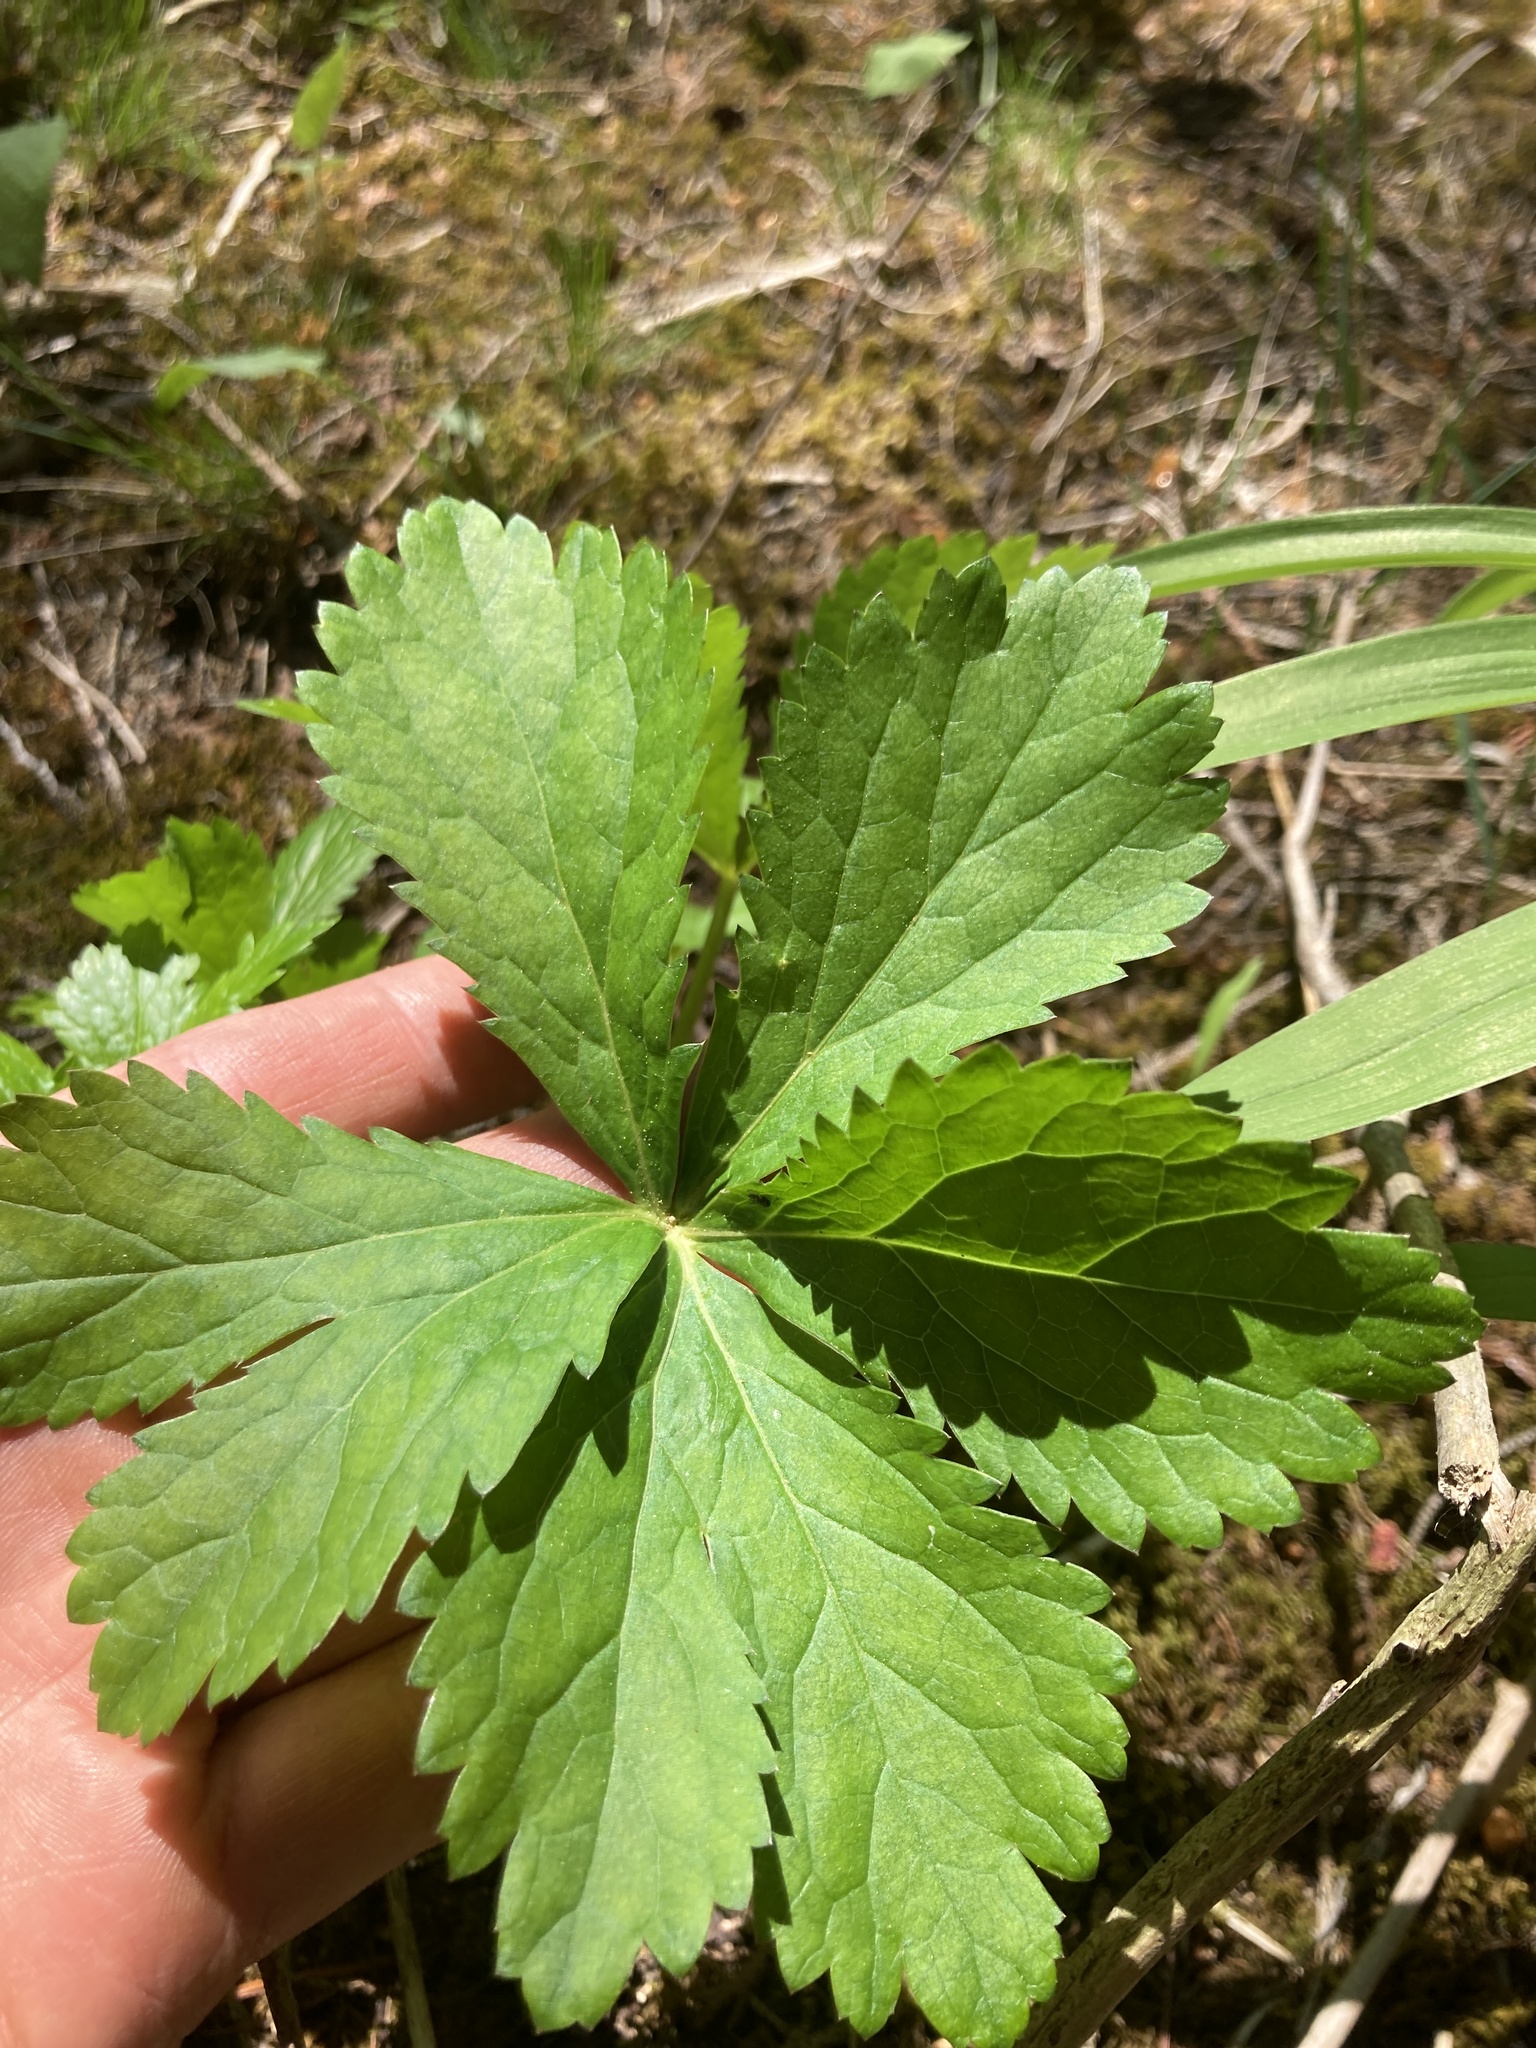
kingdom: Plantae
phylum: Tracheophyta
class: Magnoliopsida
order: Apiales
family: Apiaceae
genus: Sanicula
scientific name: Sanicula marilandica
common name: Black snakeroot
